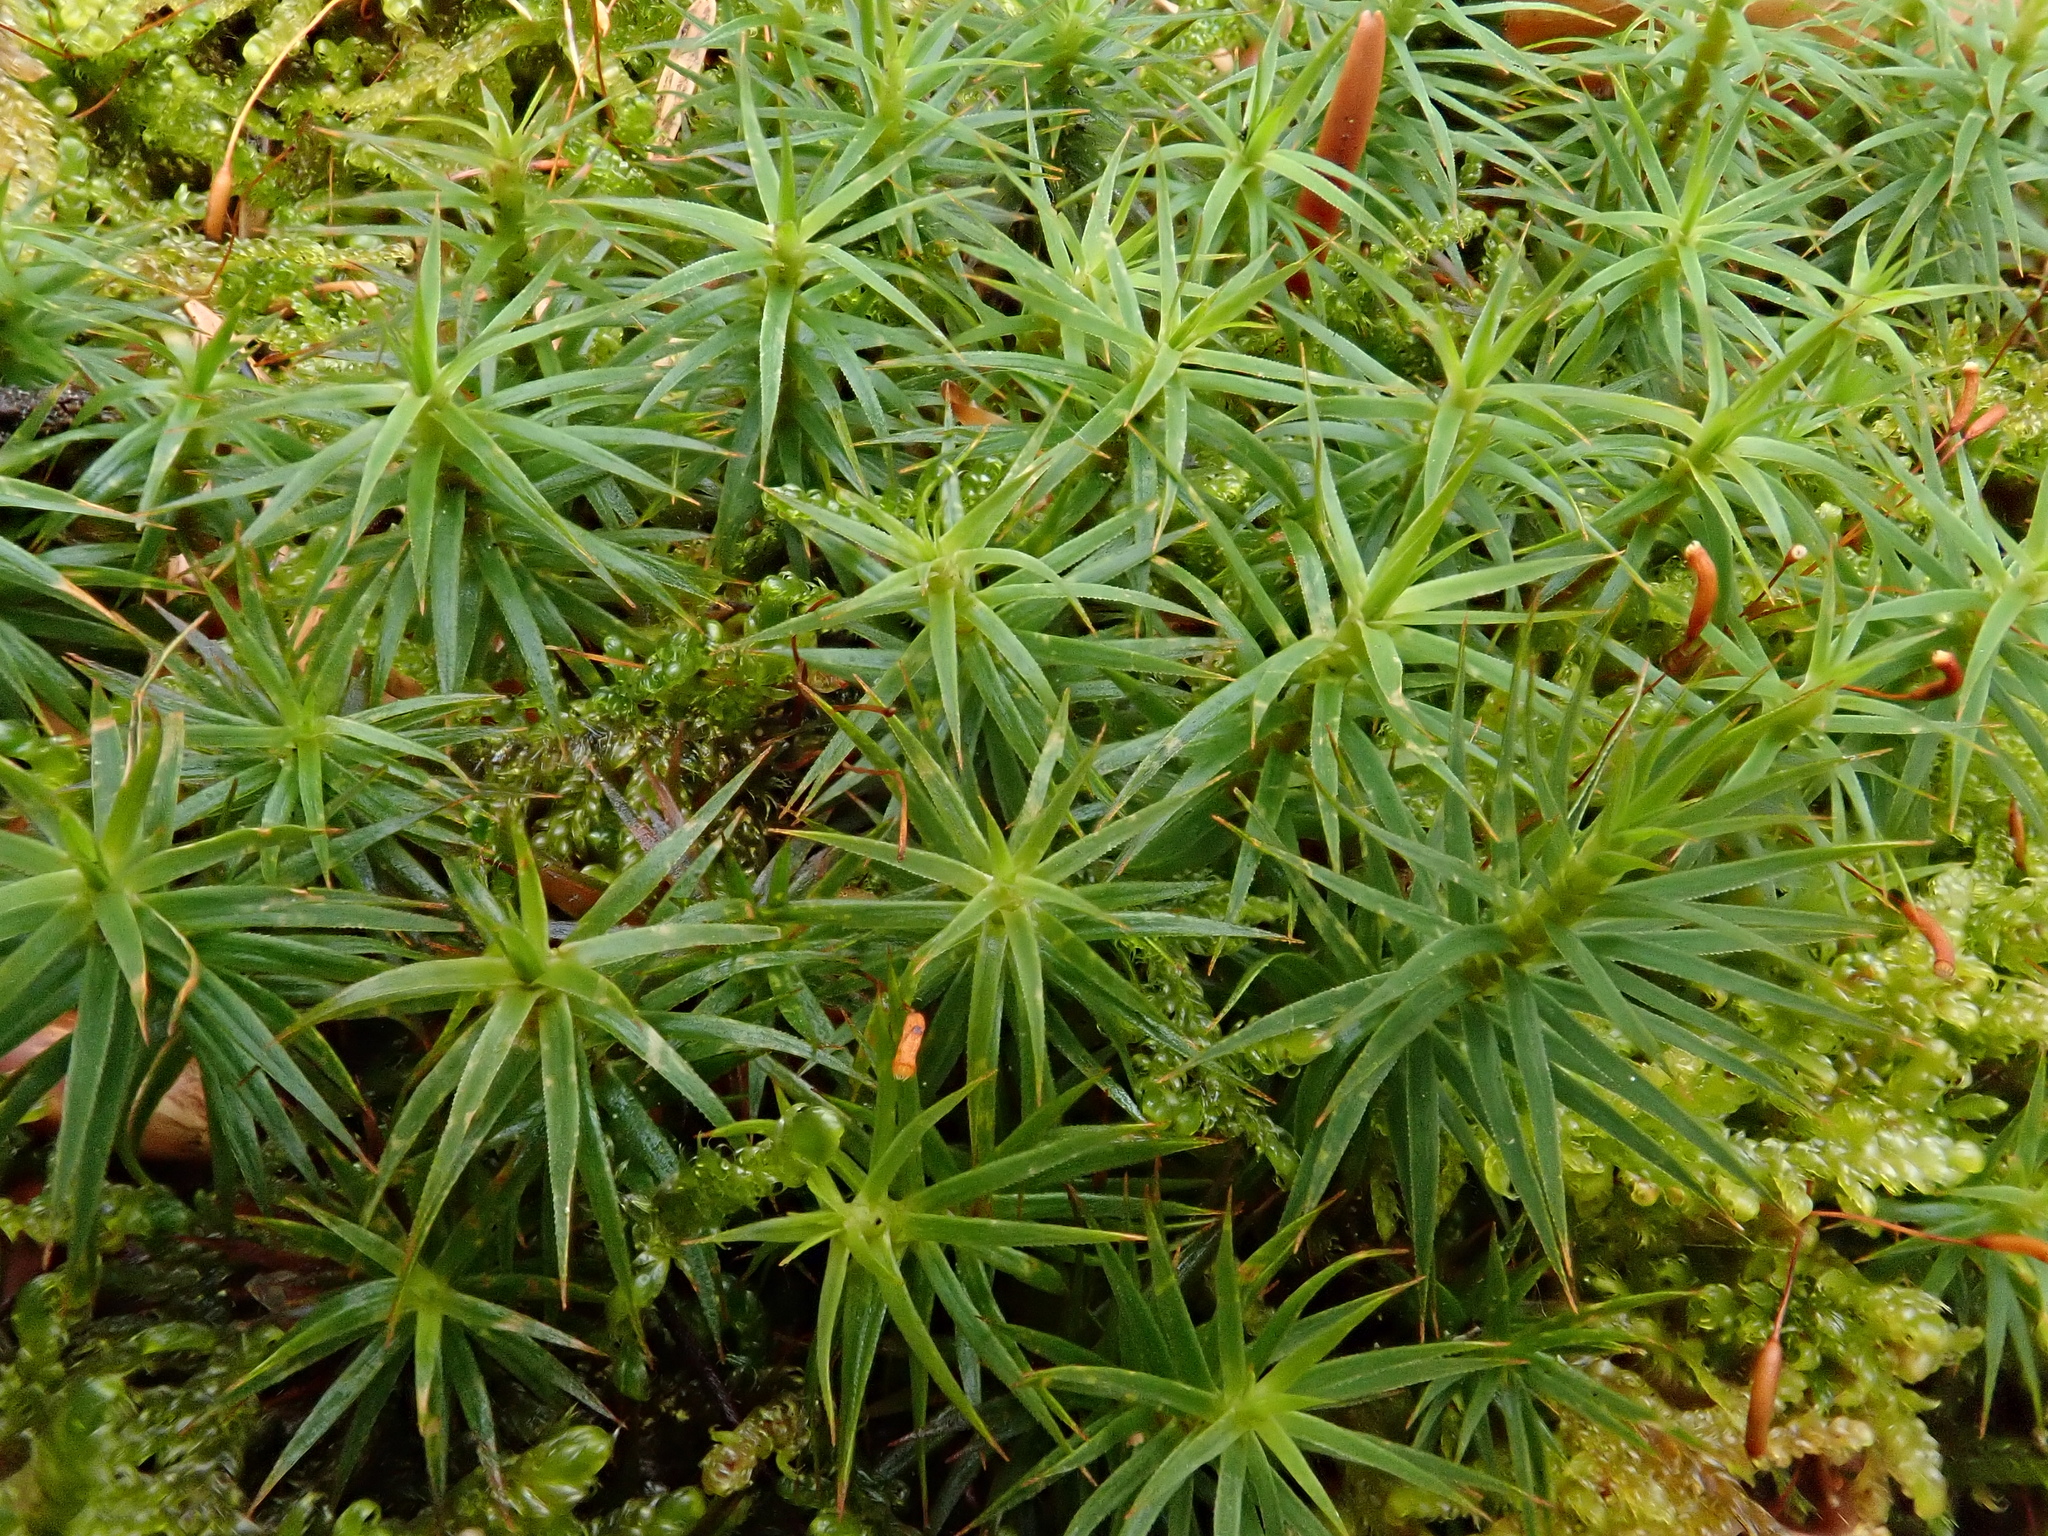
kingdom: Plantae
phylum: Bryophyta
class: Polytrichopsida
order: Polytrichales
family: Polytrichaceae
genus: Polytrichum
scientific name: Polytrichum formosum
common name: Bank haircap moss
